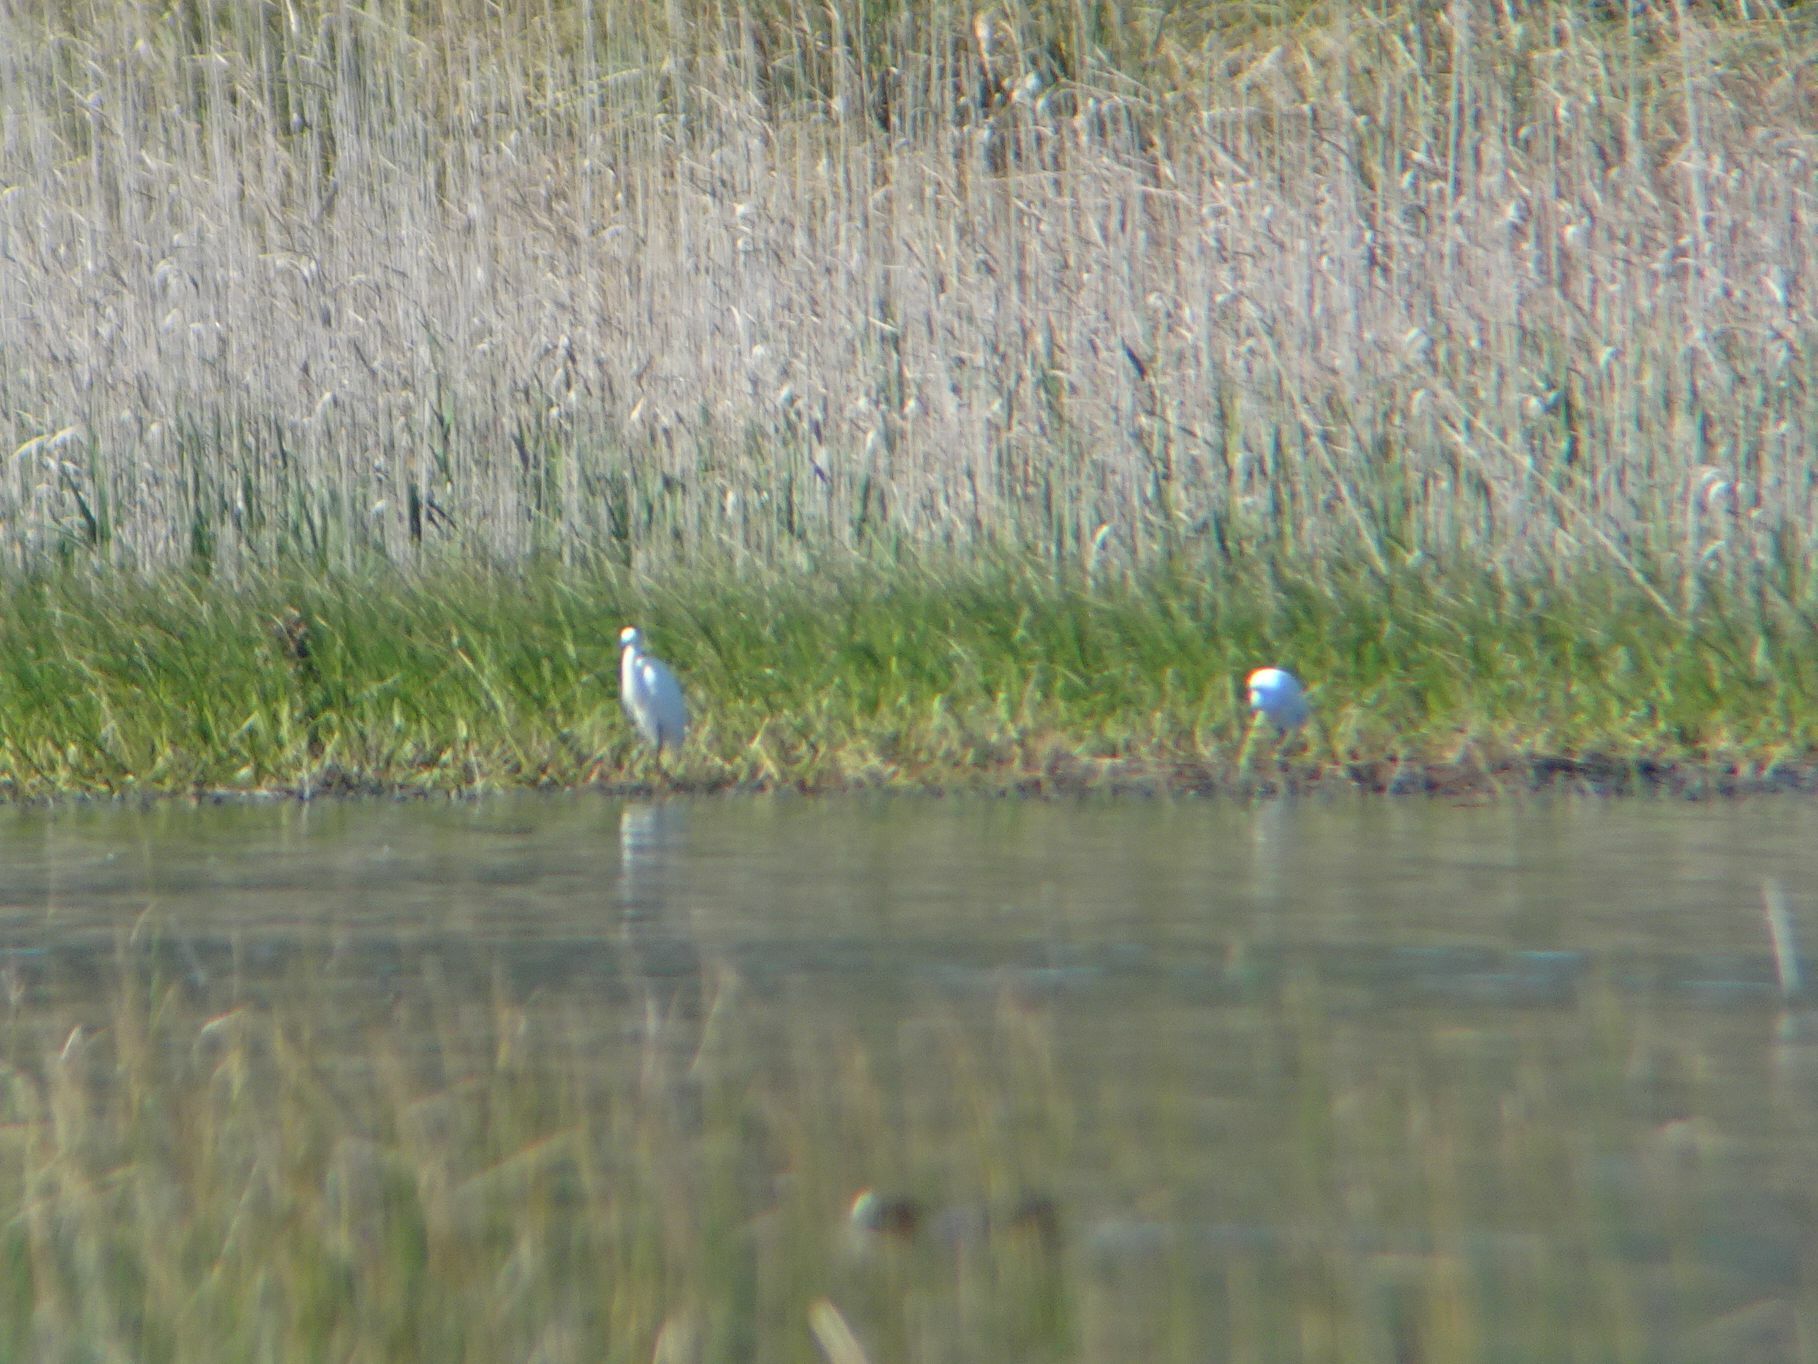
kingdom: Animalia
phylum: Chordata
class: Aves
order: Pelecaniformes
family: Ardeidae
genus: Egretta
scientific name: Egretta garzetta
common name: Little egret
